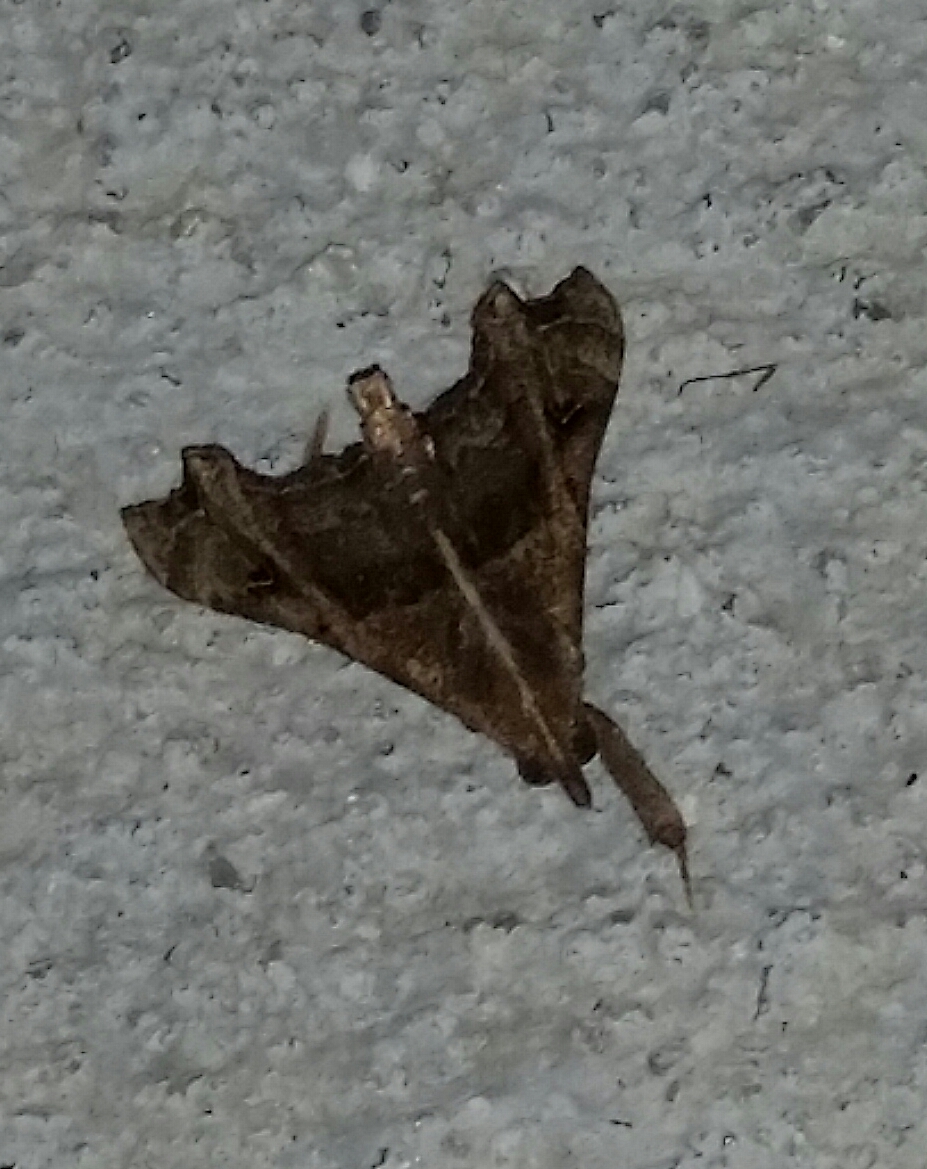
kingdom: Animalia
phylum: Arthropoda
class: Insecta
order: Lepidoptera
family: Erebidae
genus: Palthis
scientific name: Palthis asopialis
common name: Faint-spotted palthis moth
